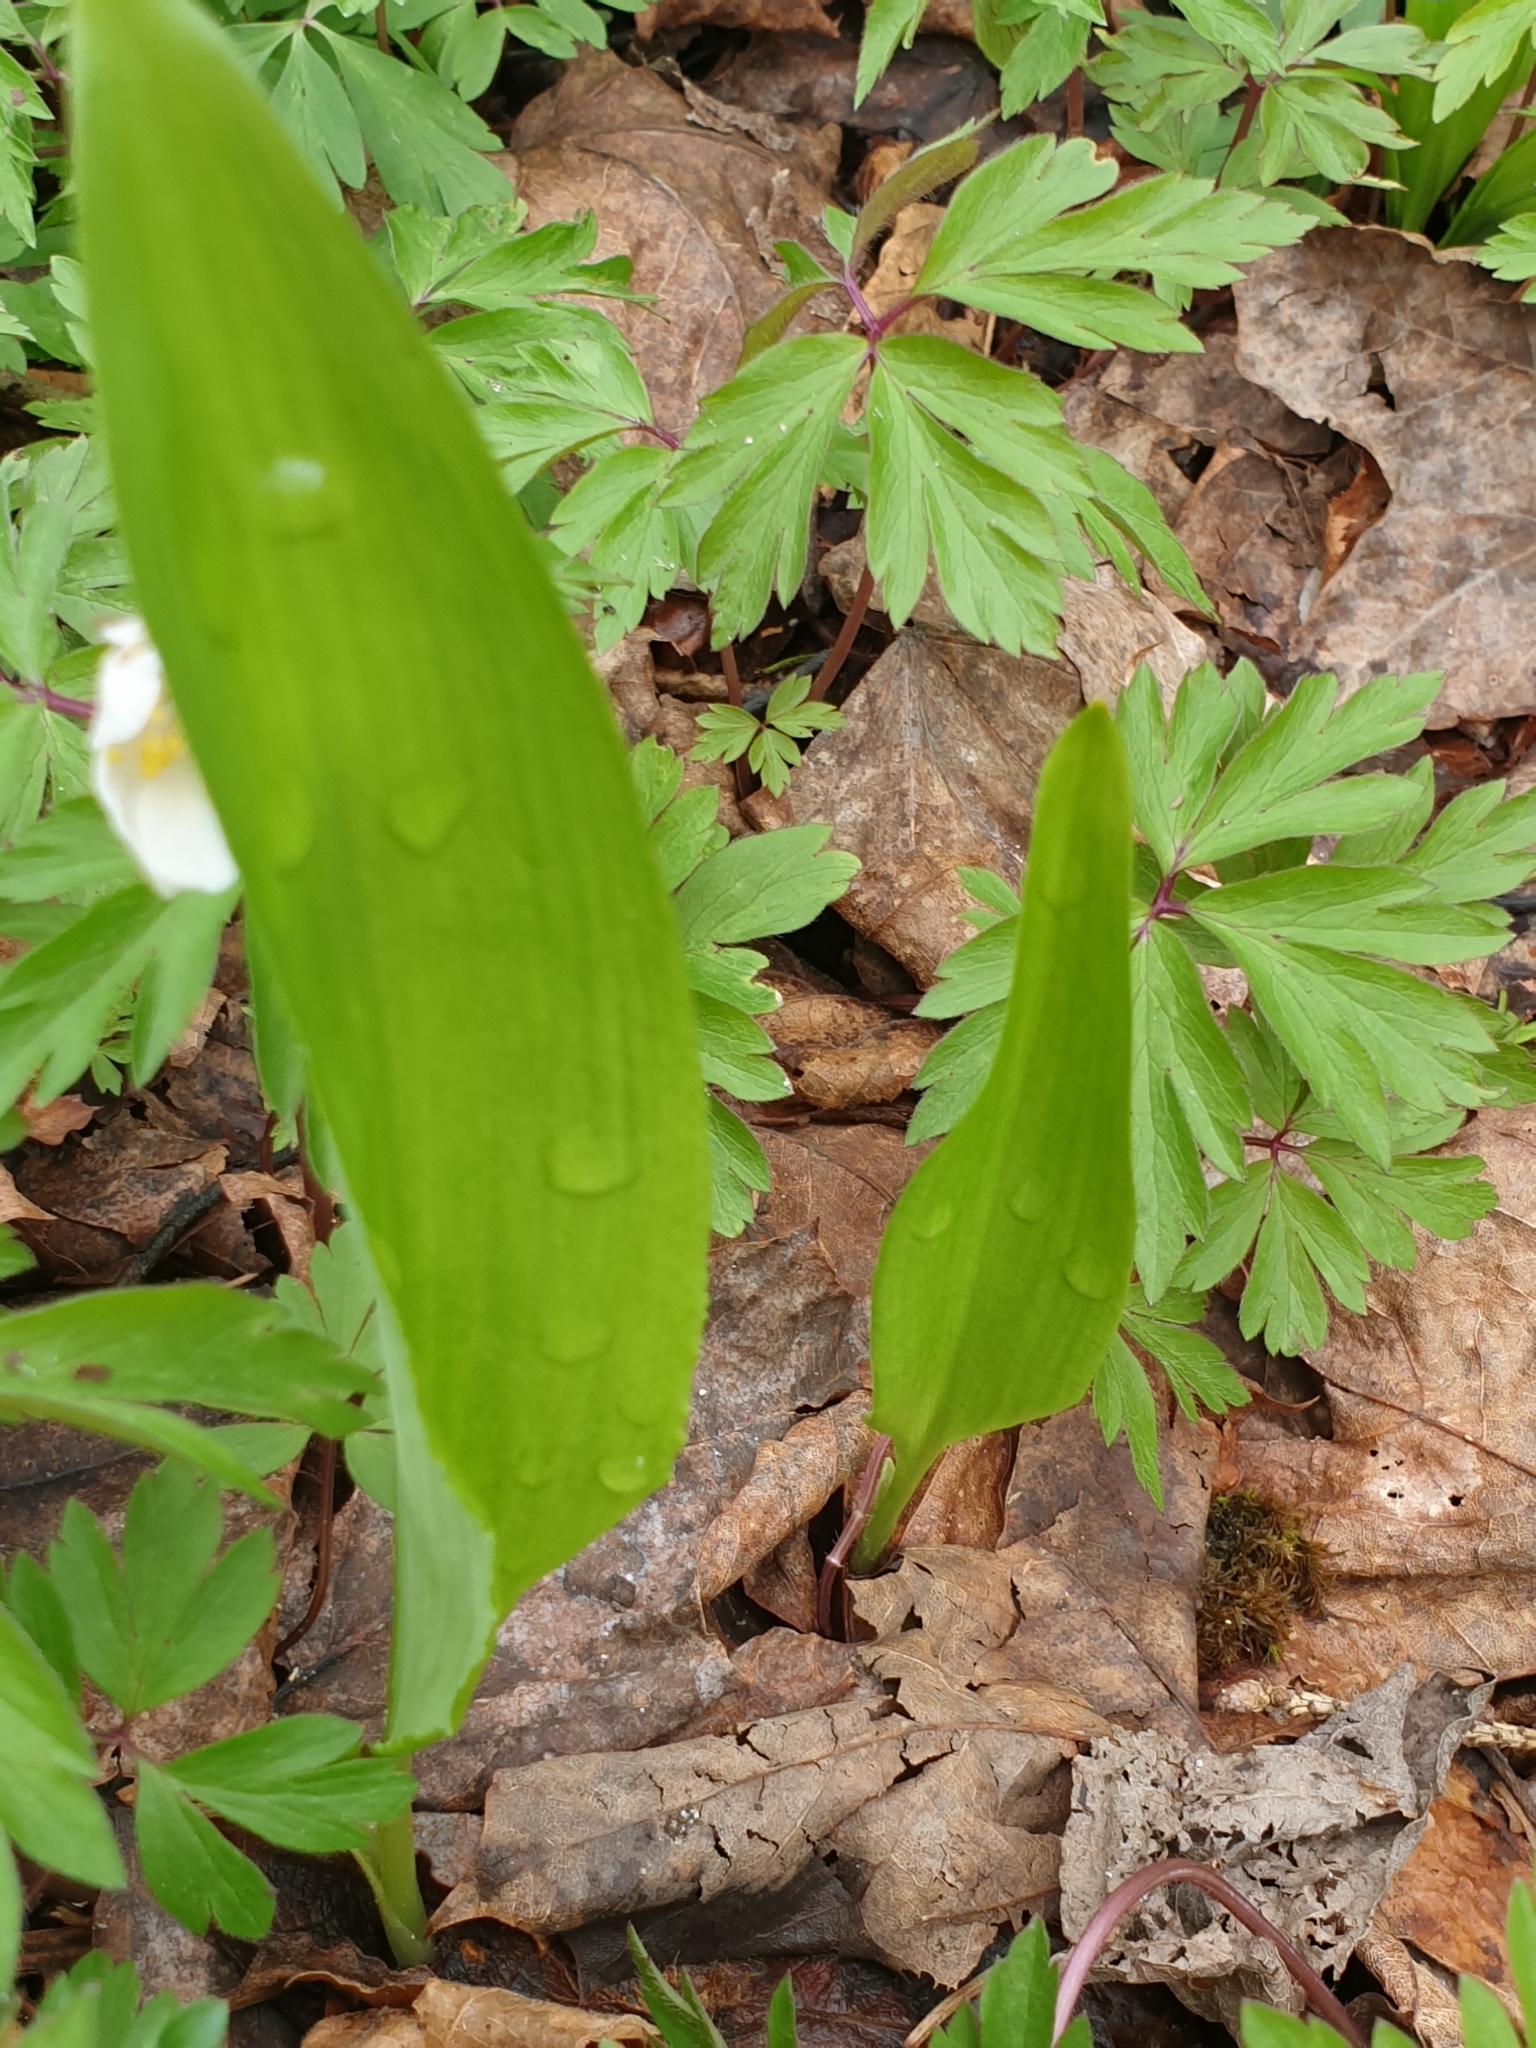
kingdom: Plantae
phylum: Tracheophyta
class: Liliopsida
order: Asparagales
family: Amaryllidaceae
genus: Allium
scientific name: Allium ursinum
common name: Ramsons
